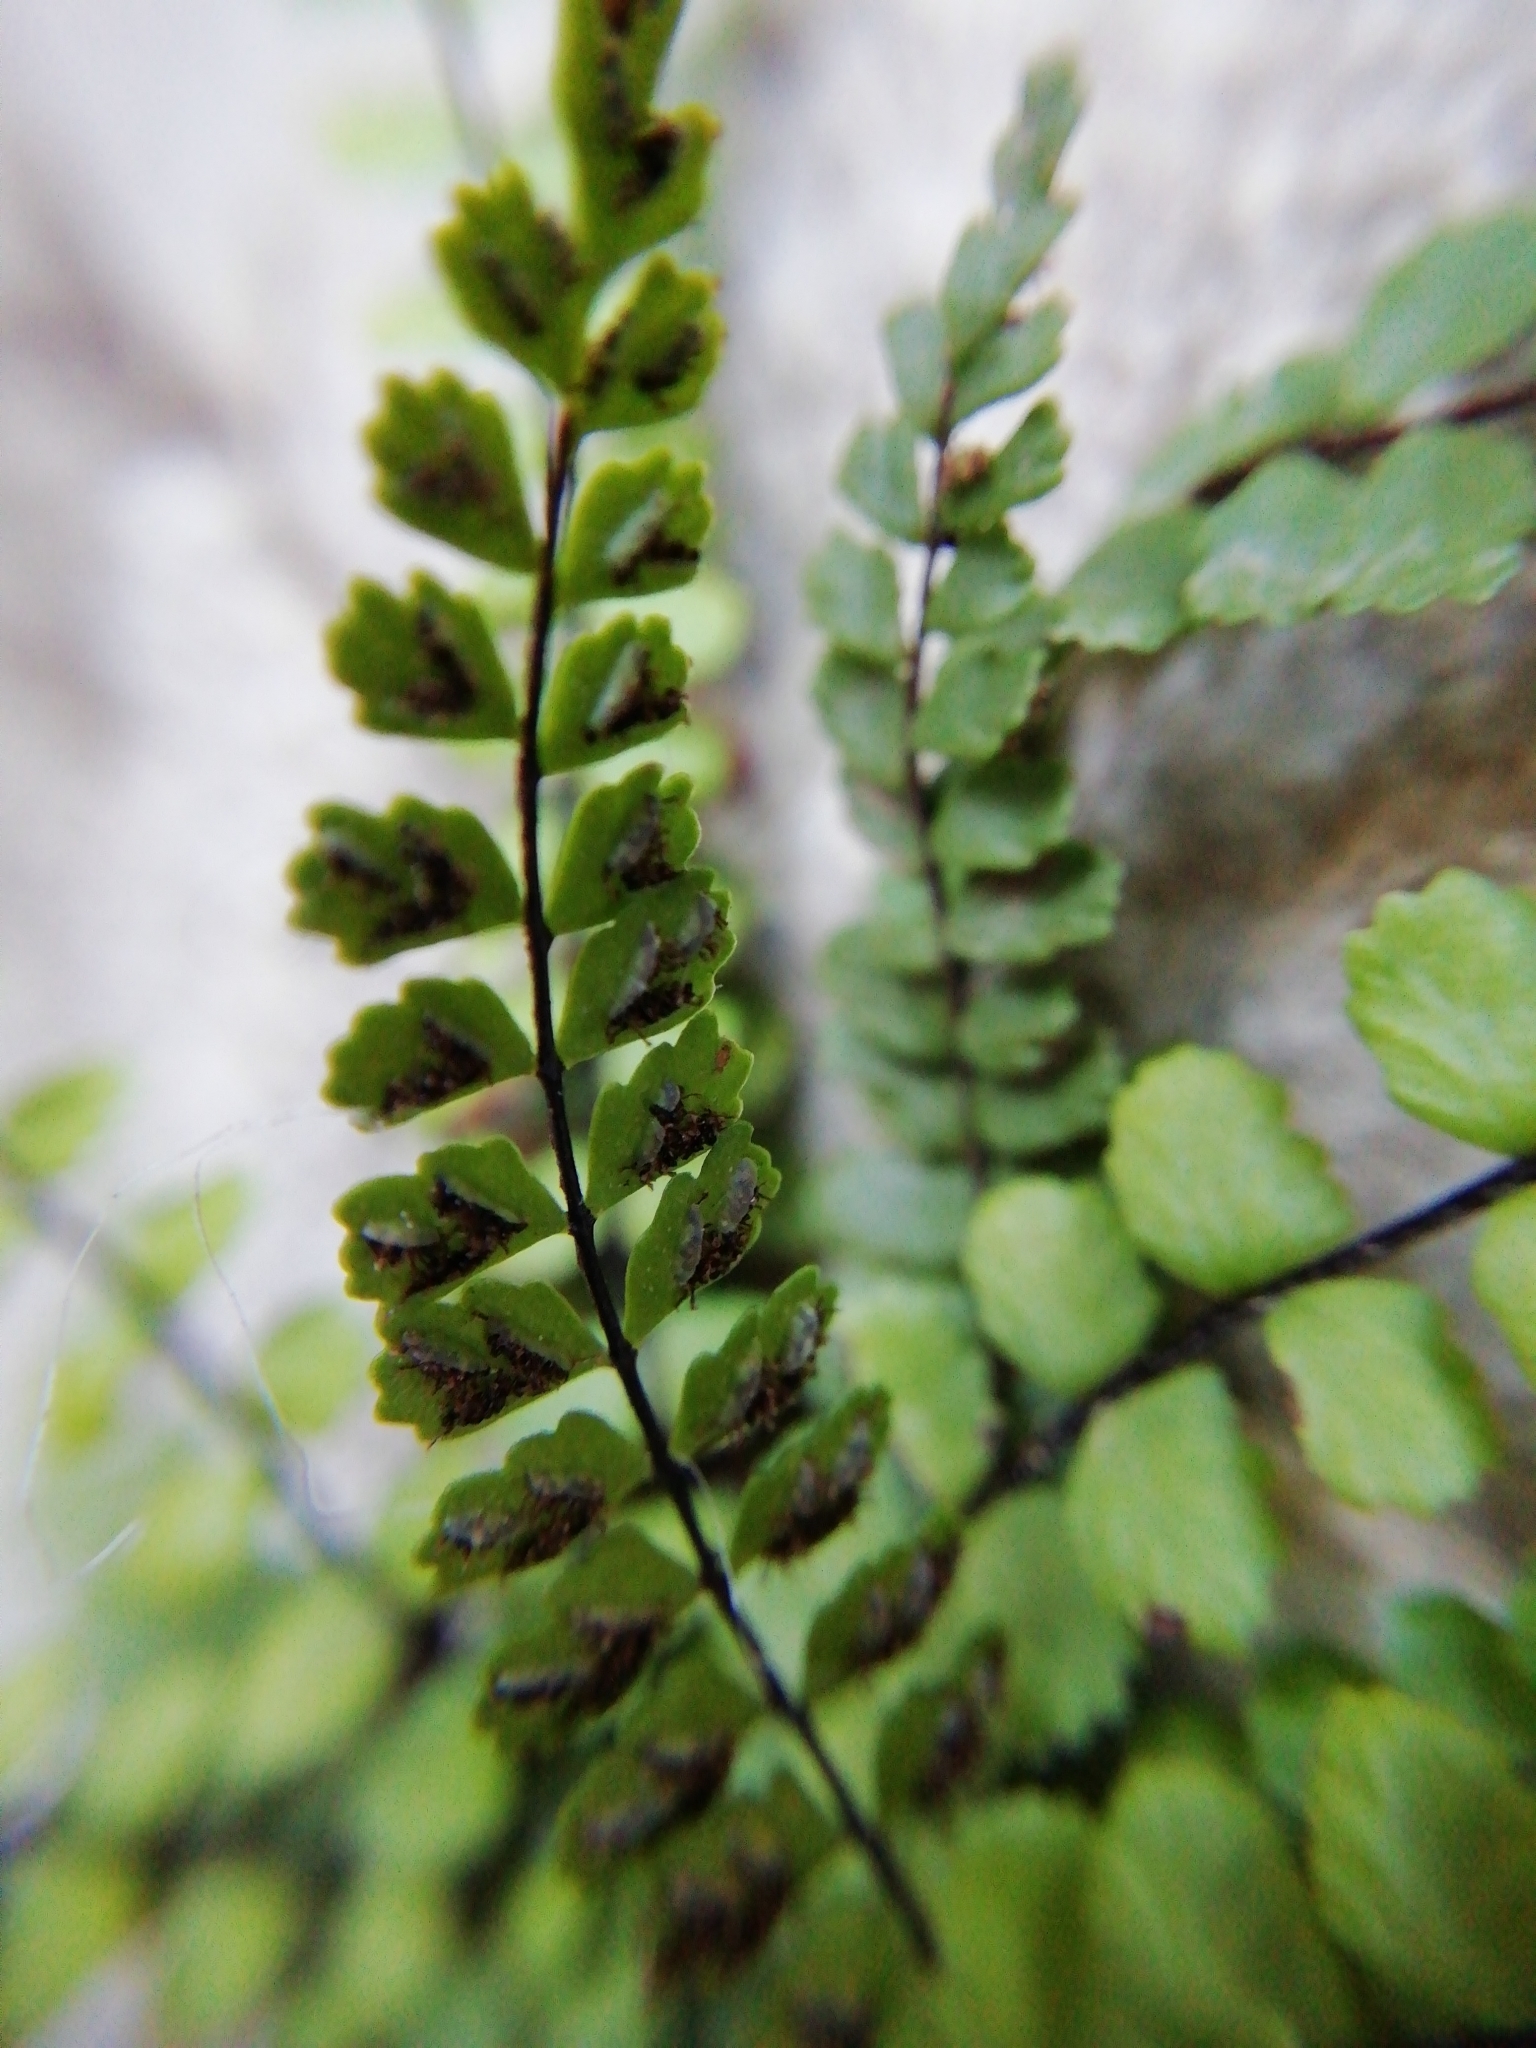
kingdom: Plantae
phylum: Tracheophyta
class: Polypodiopsida
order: Polypodiales
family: Aspleniaceae
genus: Asplenium
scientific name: Asplenium quadrivalens
